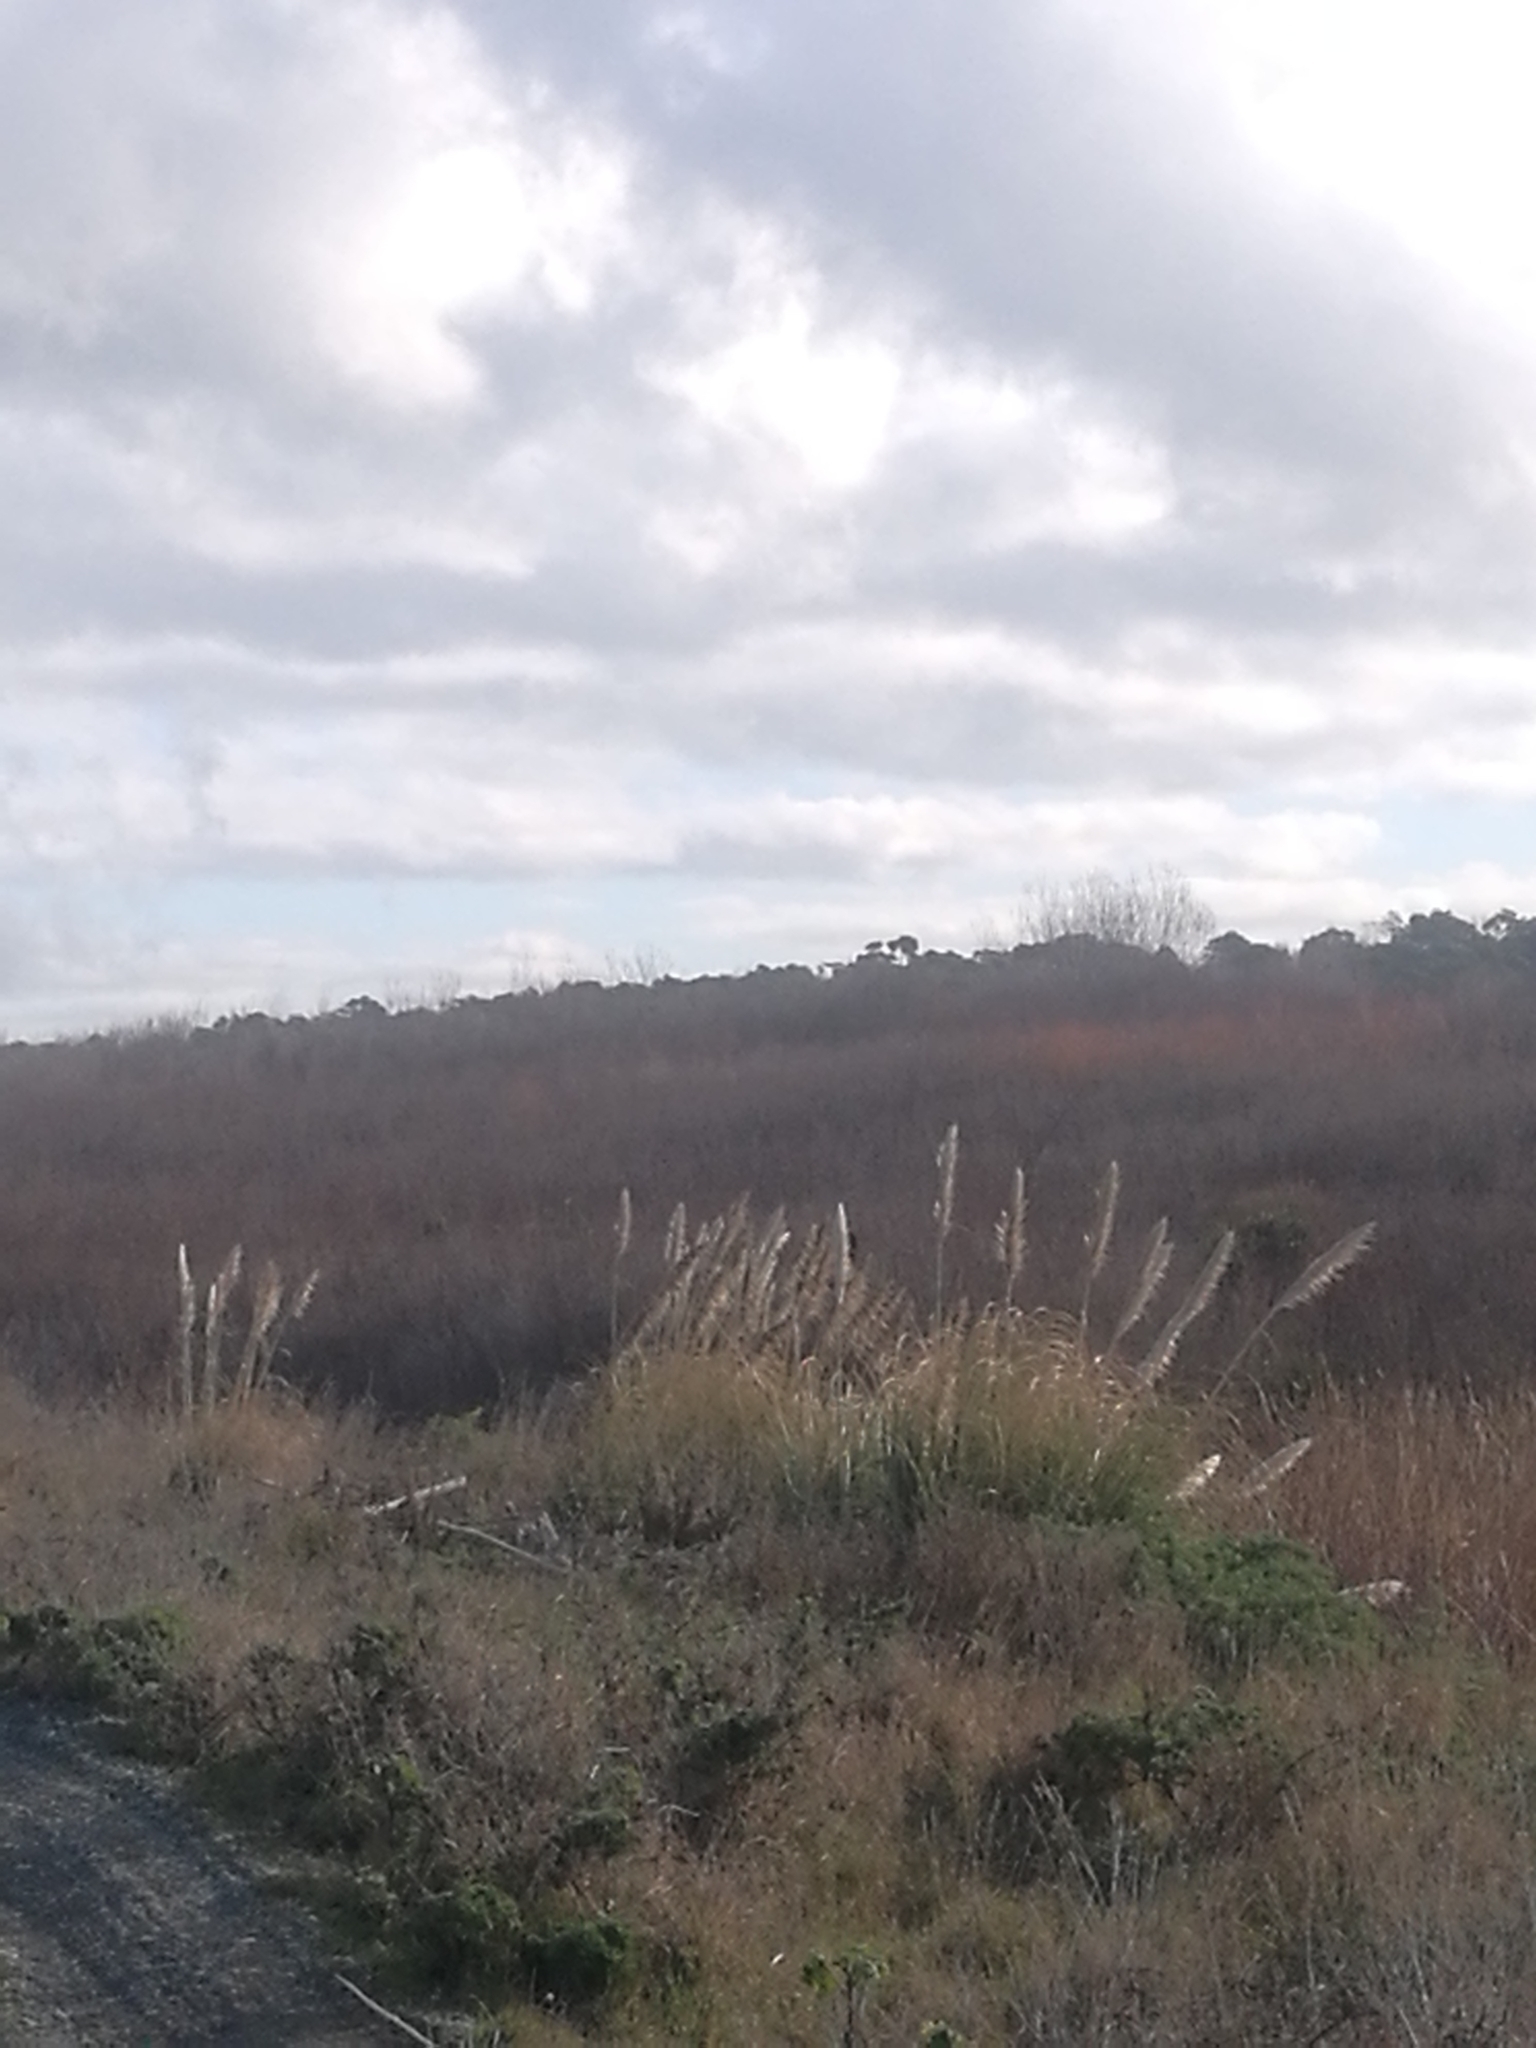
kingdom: Plantae
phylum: Tracheophyta
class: Liliopsida
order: Poales
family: Poaceae
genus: Cortaderia
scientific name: Cortaderia selloana
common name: Uruguayan pampas grass
